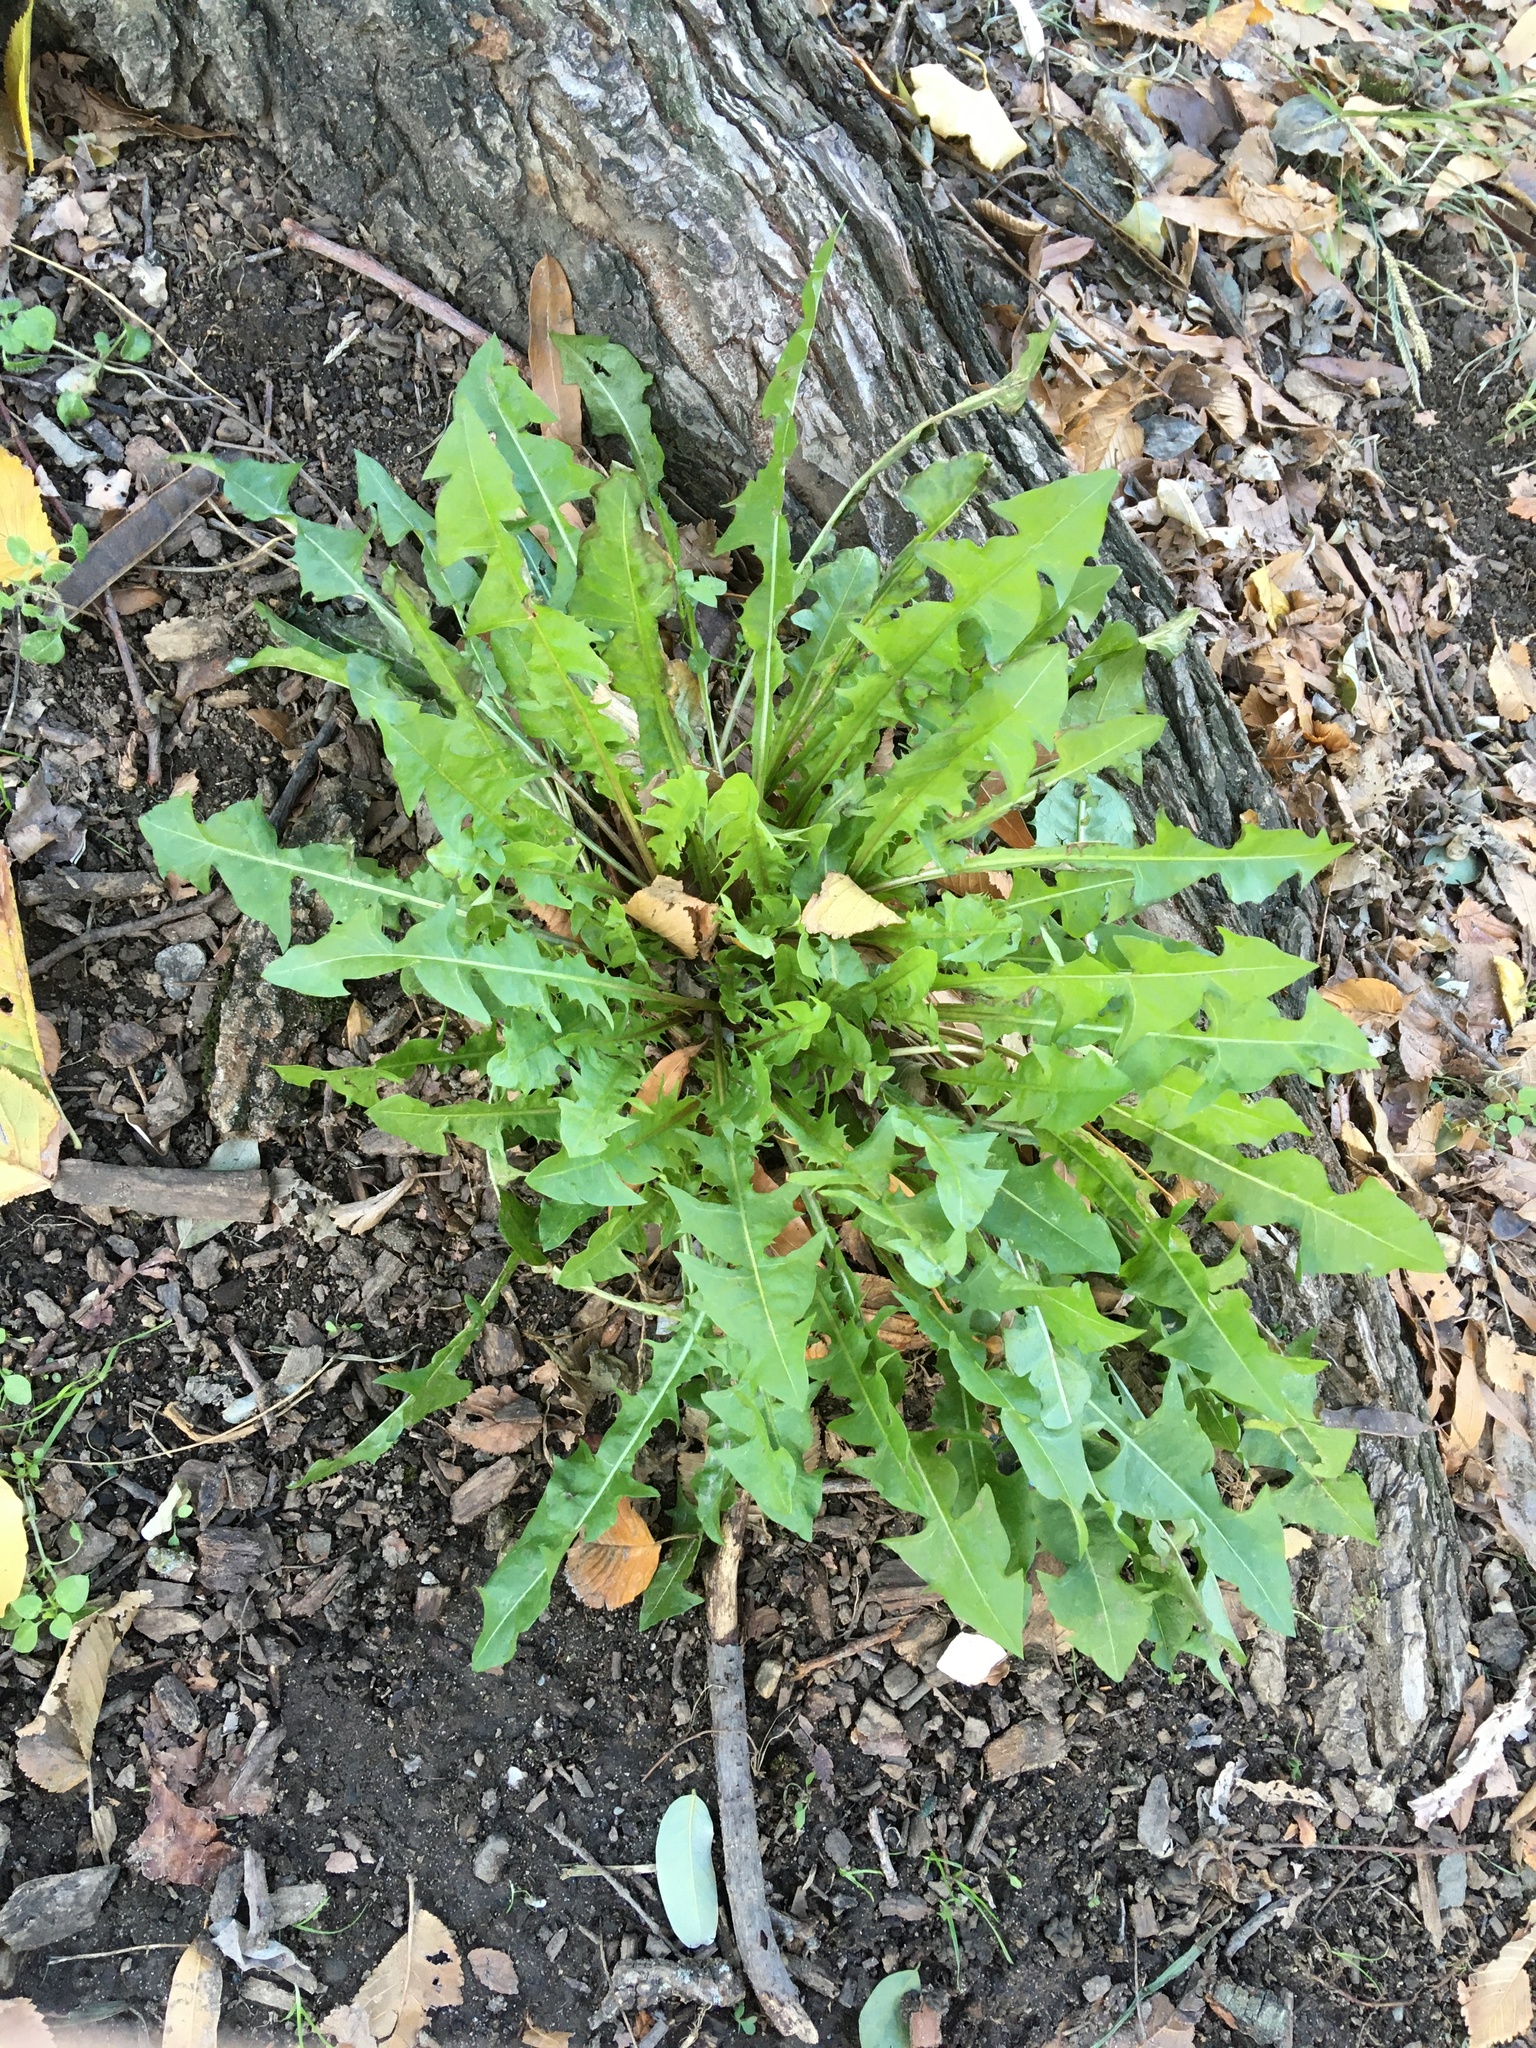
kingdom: Plantae
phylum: Tracheophyta
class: Magnoliopsida
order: Asterales
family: Asteraceae
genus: Taraxacum
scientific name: Taraxacum officinale
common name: Common dandelion
